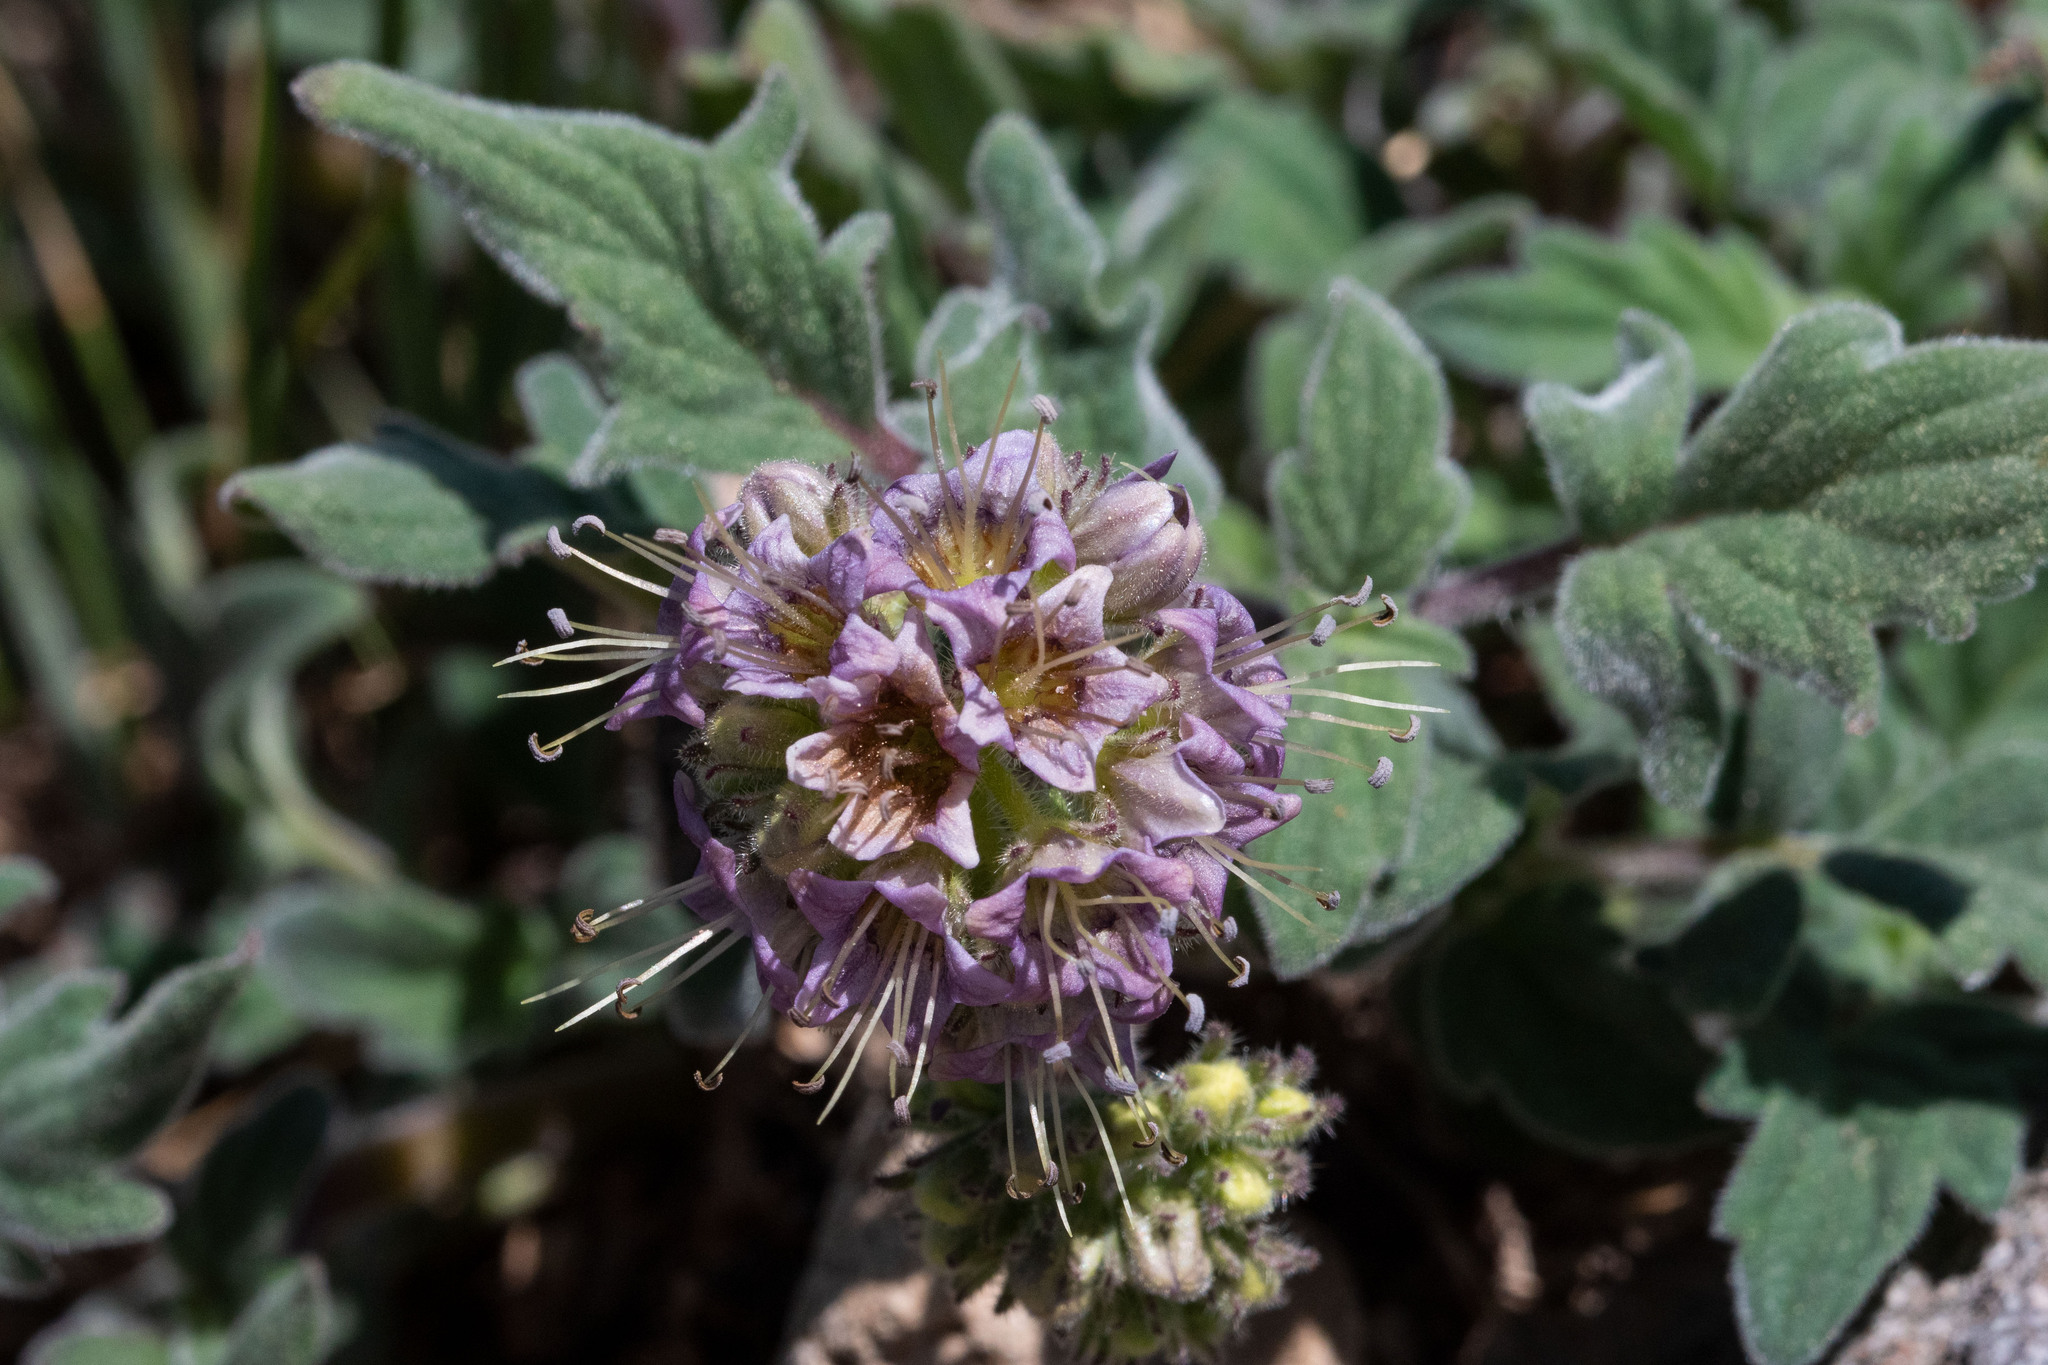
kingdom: Plantae
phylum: Tracheophyta
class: Magnoliopsida
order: Boraginales
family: Hydrophyllaceae
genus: Phacelia
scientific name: Phacelia hydrophylloides
